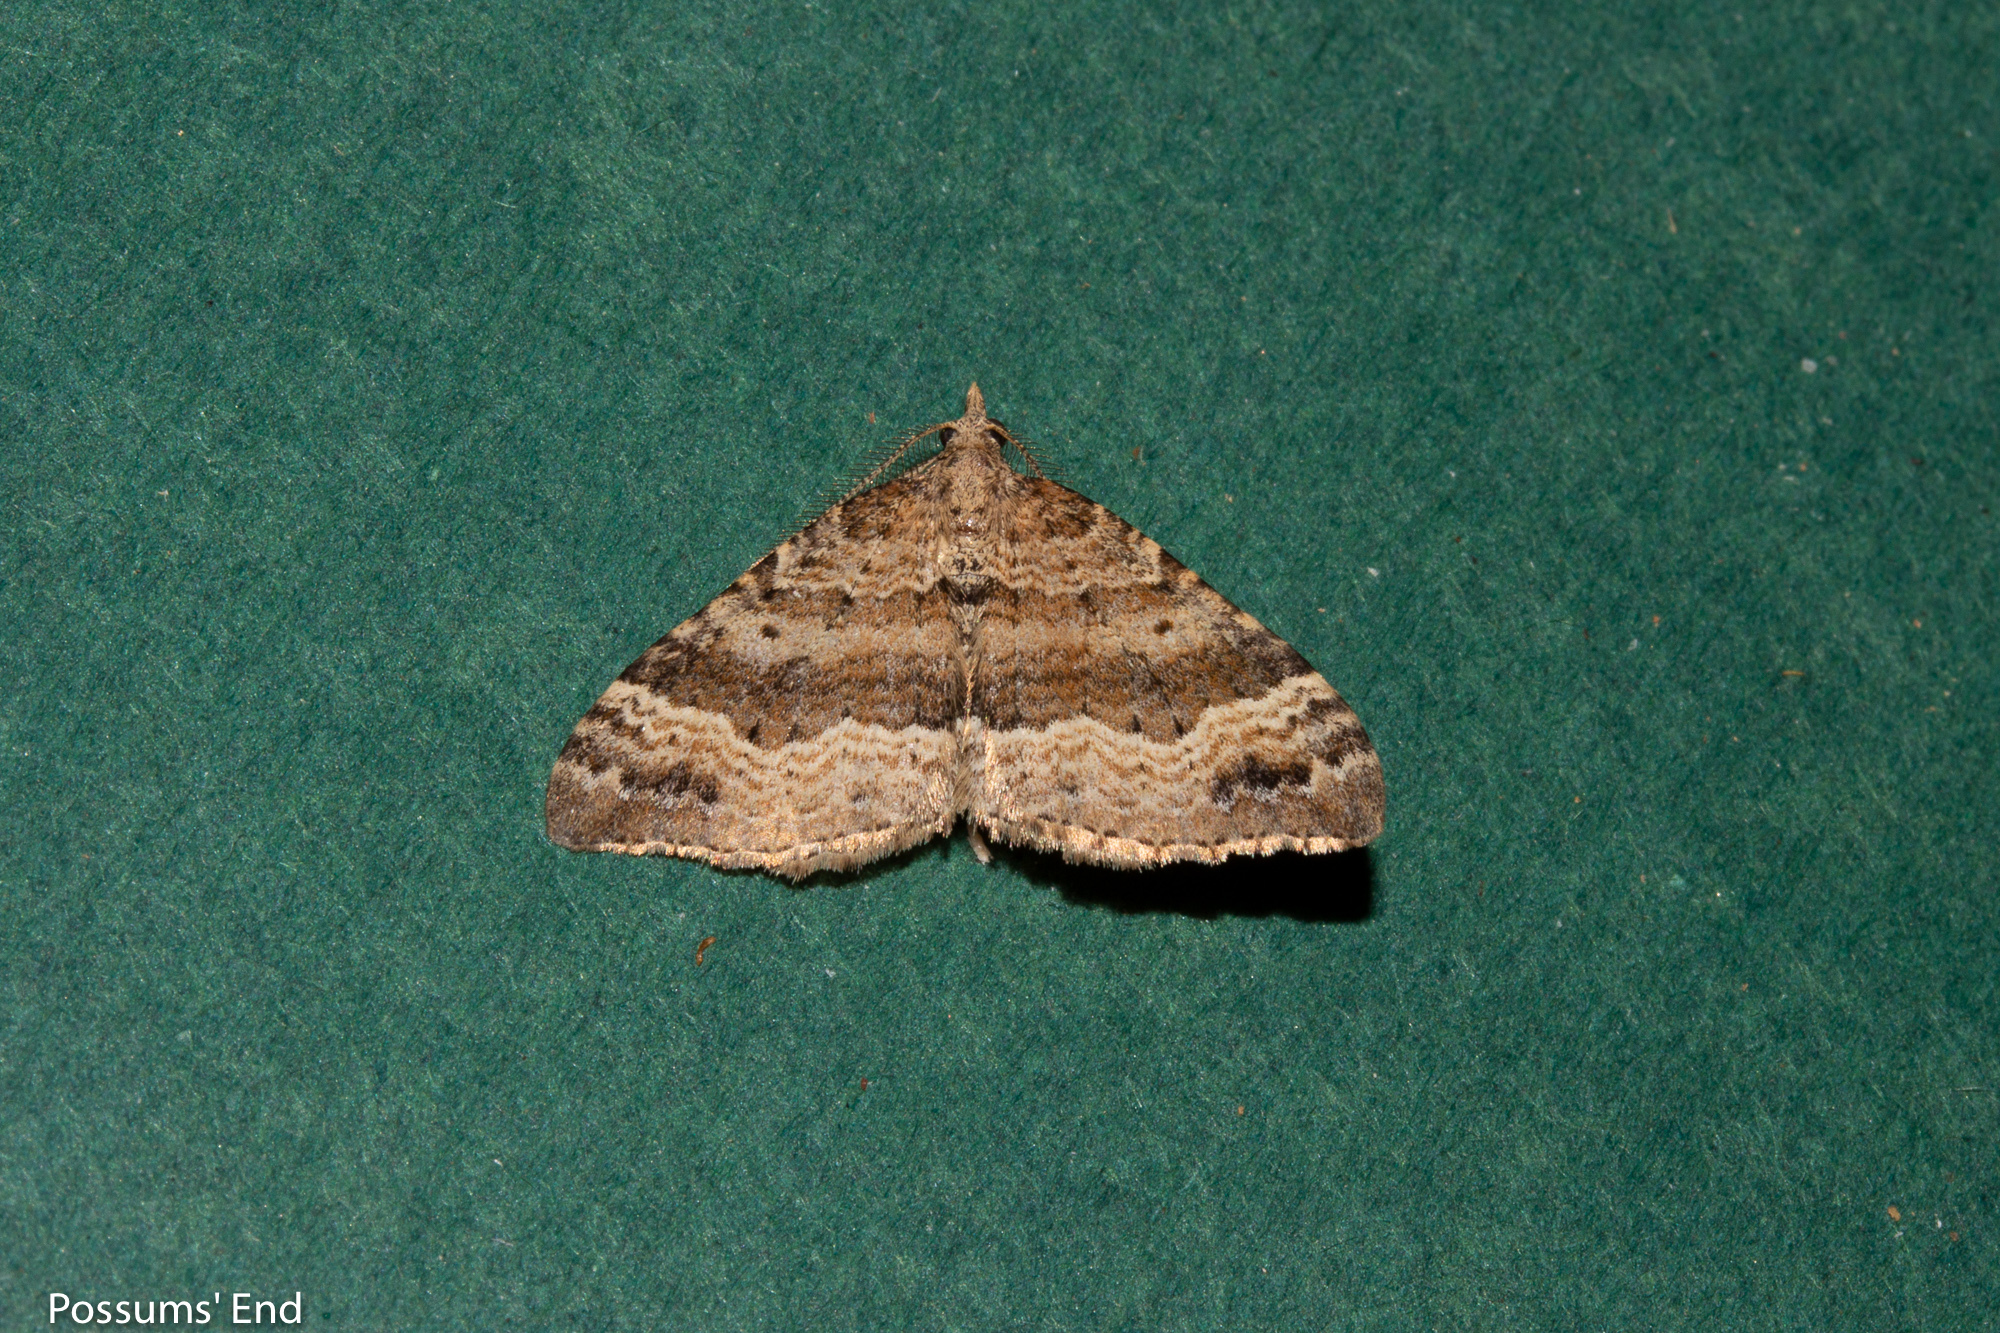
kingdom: Animalia
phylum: Arthropoda
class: Insecta
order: Lepidoptera
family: Geometridae
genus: Homodotis
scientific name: Homodotis falcata
